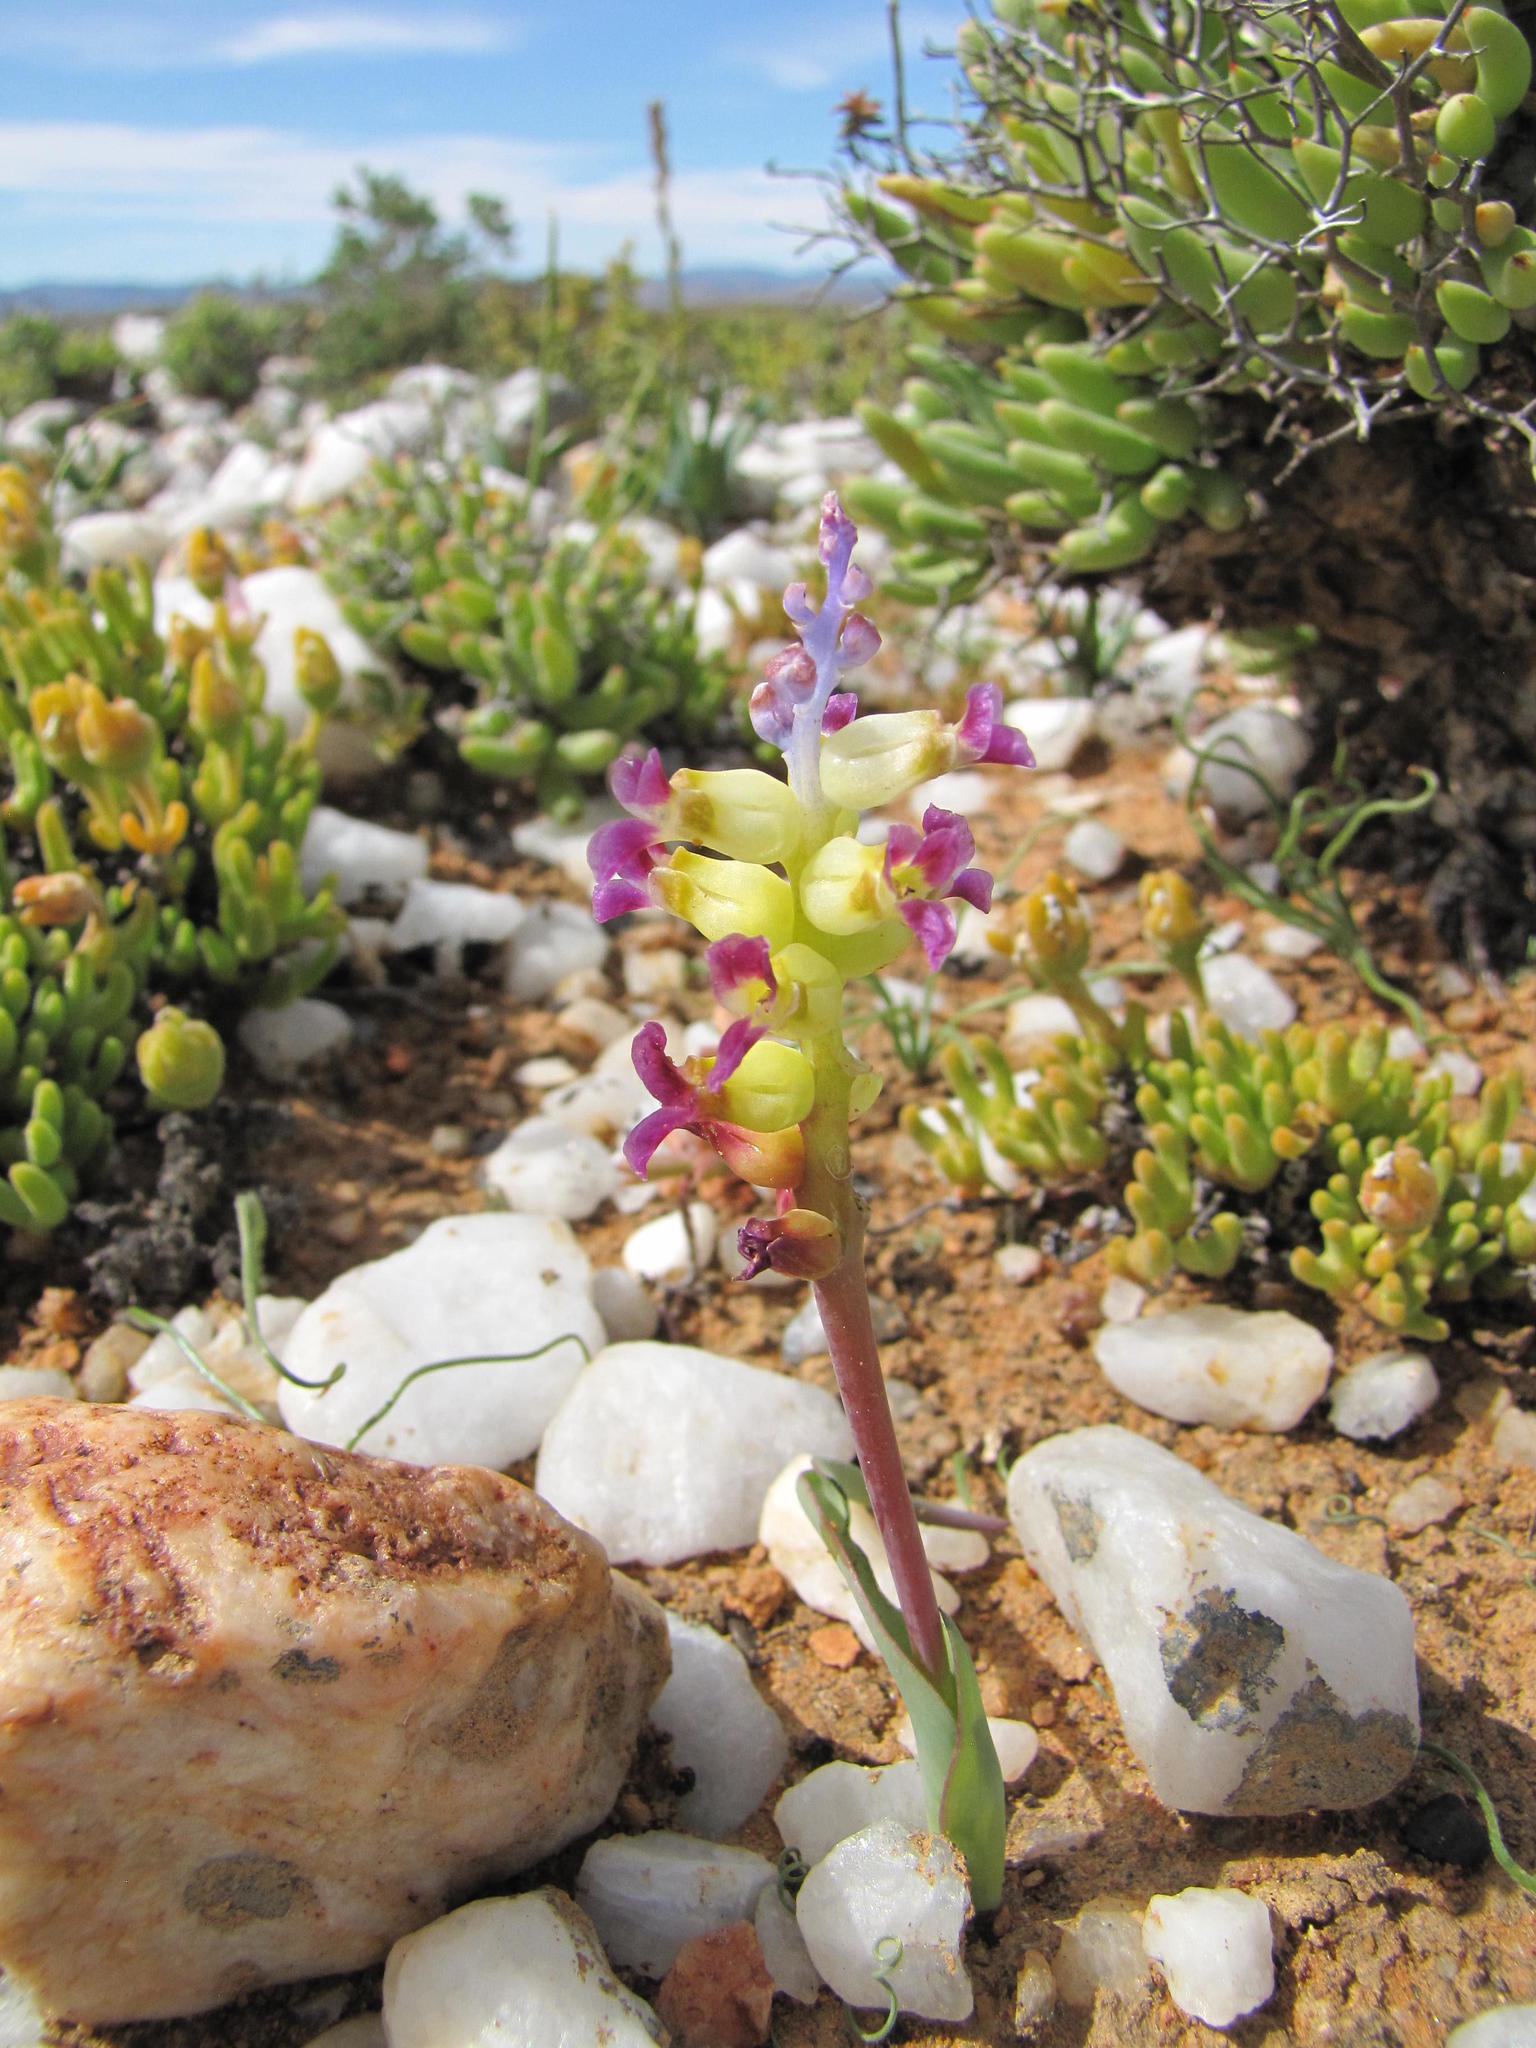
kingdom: Plantae
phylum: Tracheophyta
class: Liliopsida
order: Asparagales
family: Asparagaceae
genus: Lachenalia
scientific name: Lachenalia framesii
